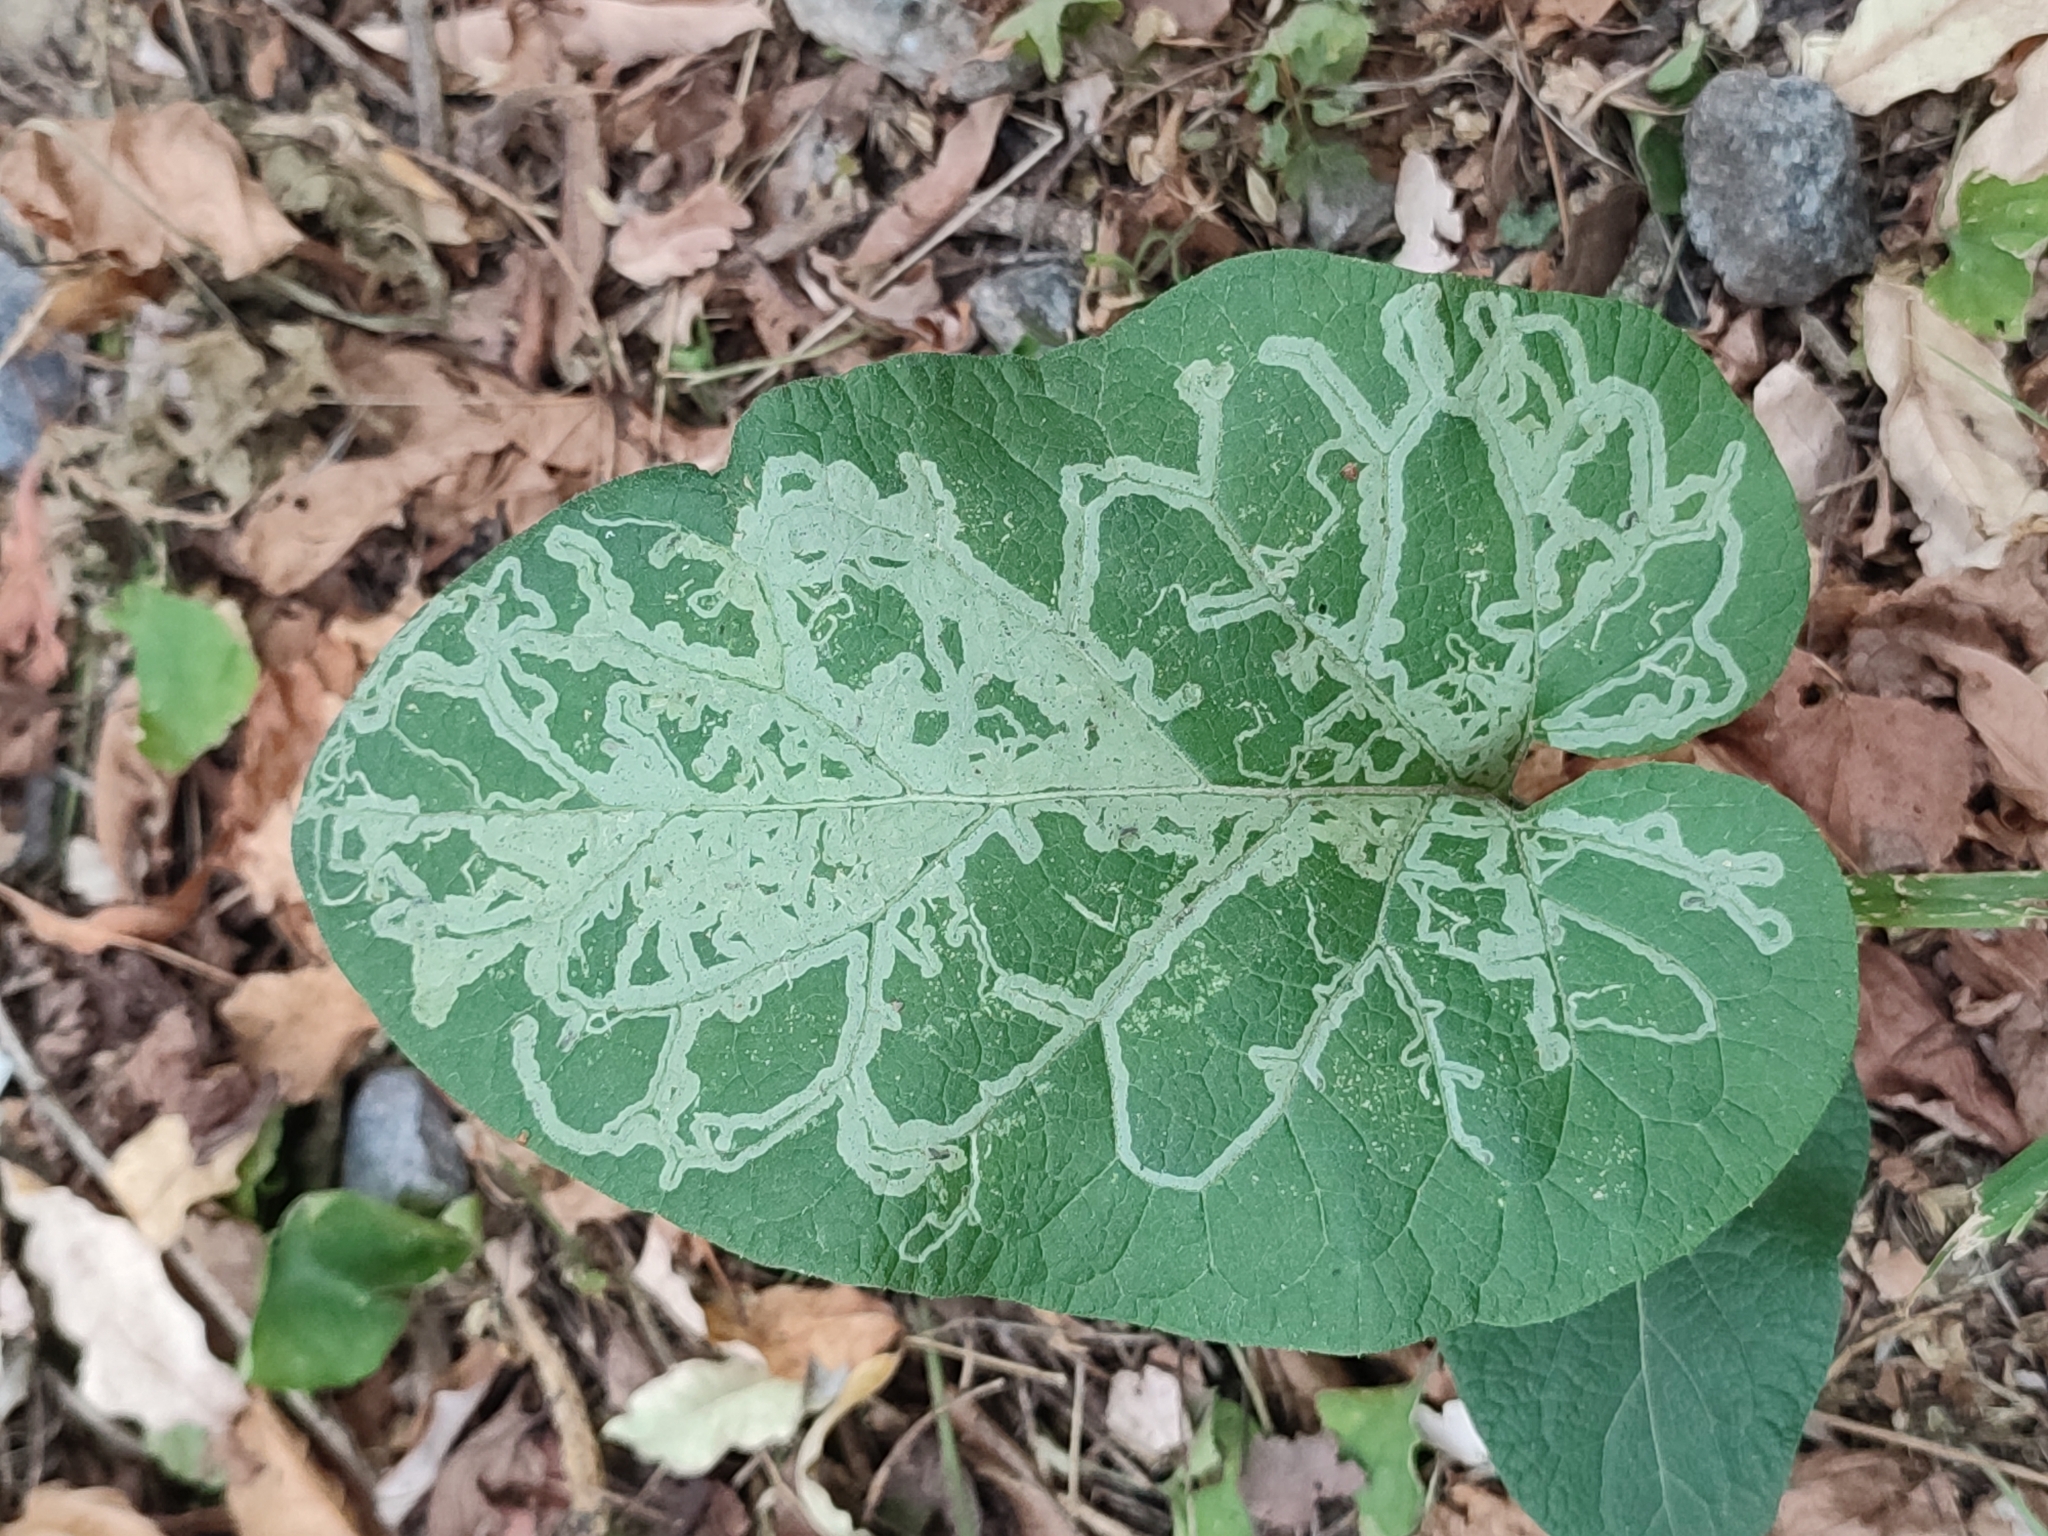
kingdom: Animalia
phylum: Arthropoda
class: Insecta
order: Diptera
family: Agromyzidae
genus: Phytomyza
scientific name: Phytomyza lappae
